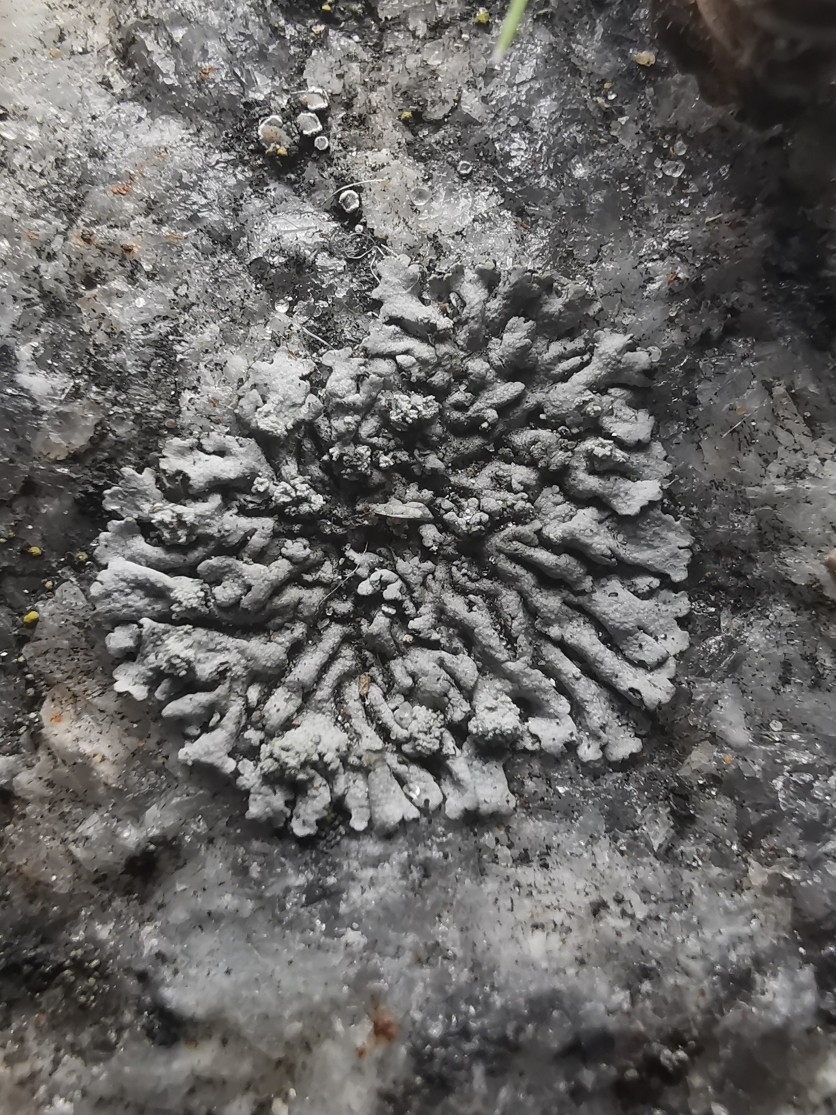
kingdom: Fungi
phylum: Ascomycota
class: Lecanoromycetes
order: Caliciales
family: Physciaceae
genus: Physcia
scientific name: Physcia caesia
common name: Blue-gray rosette lichen
